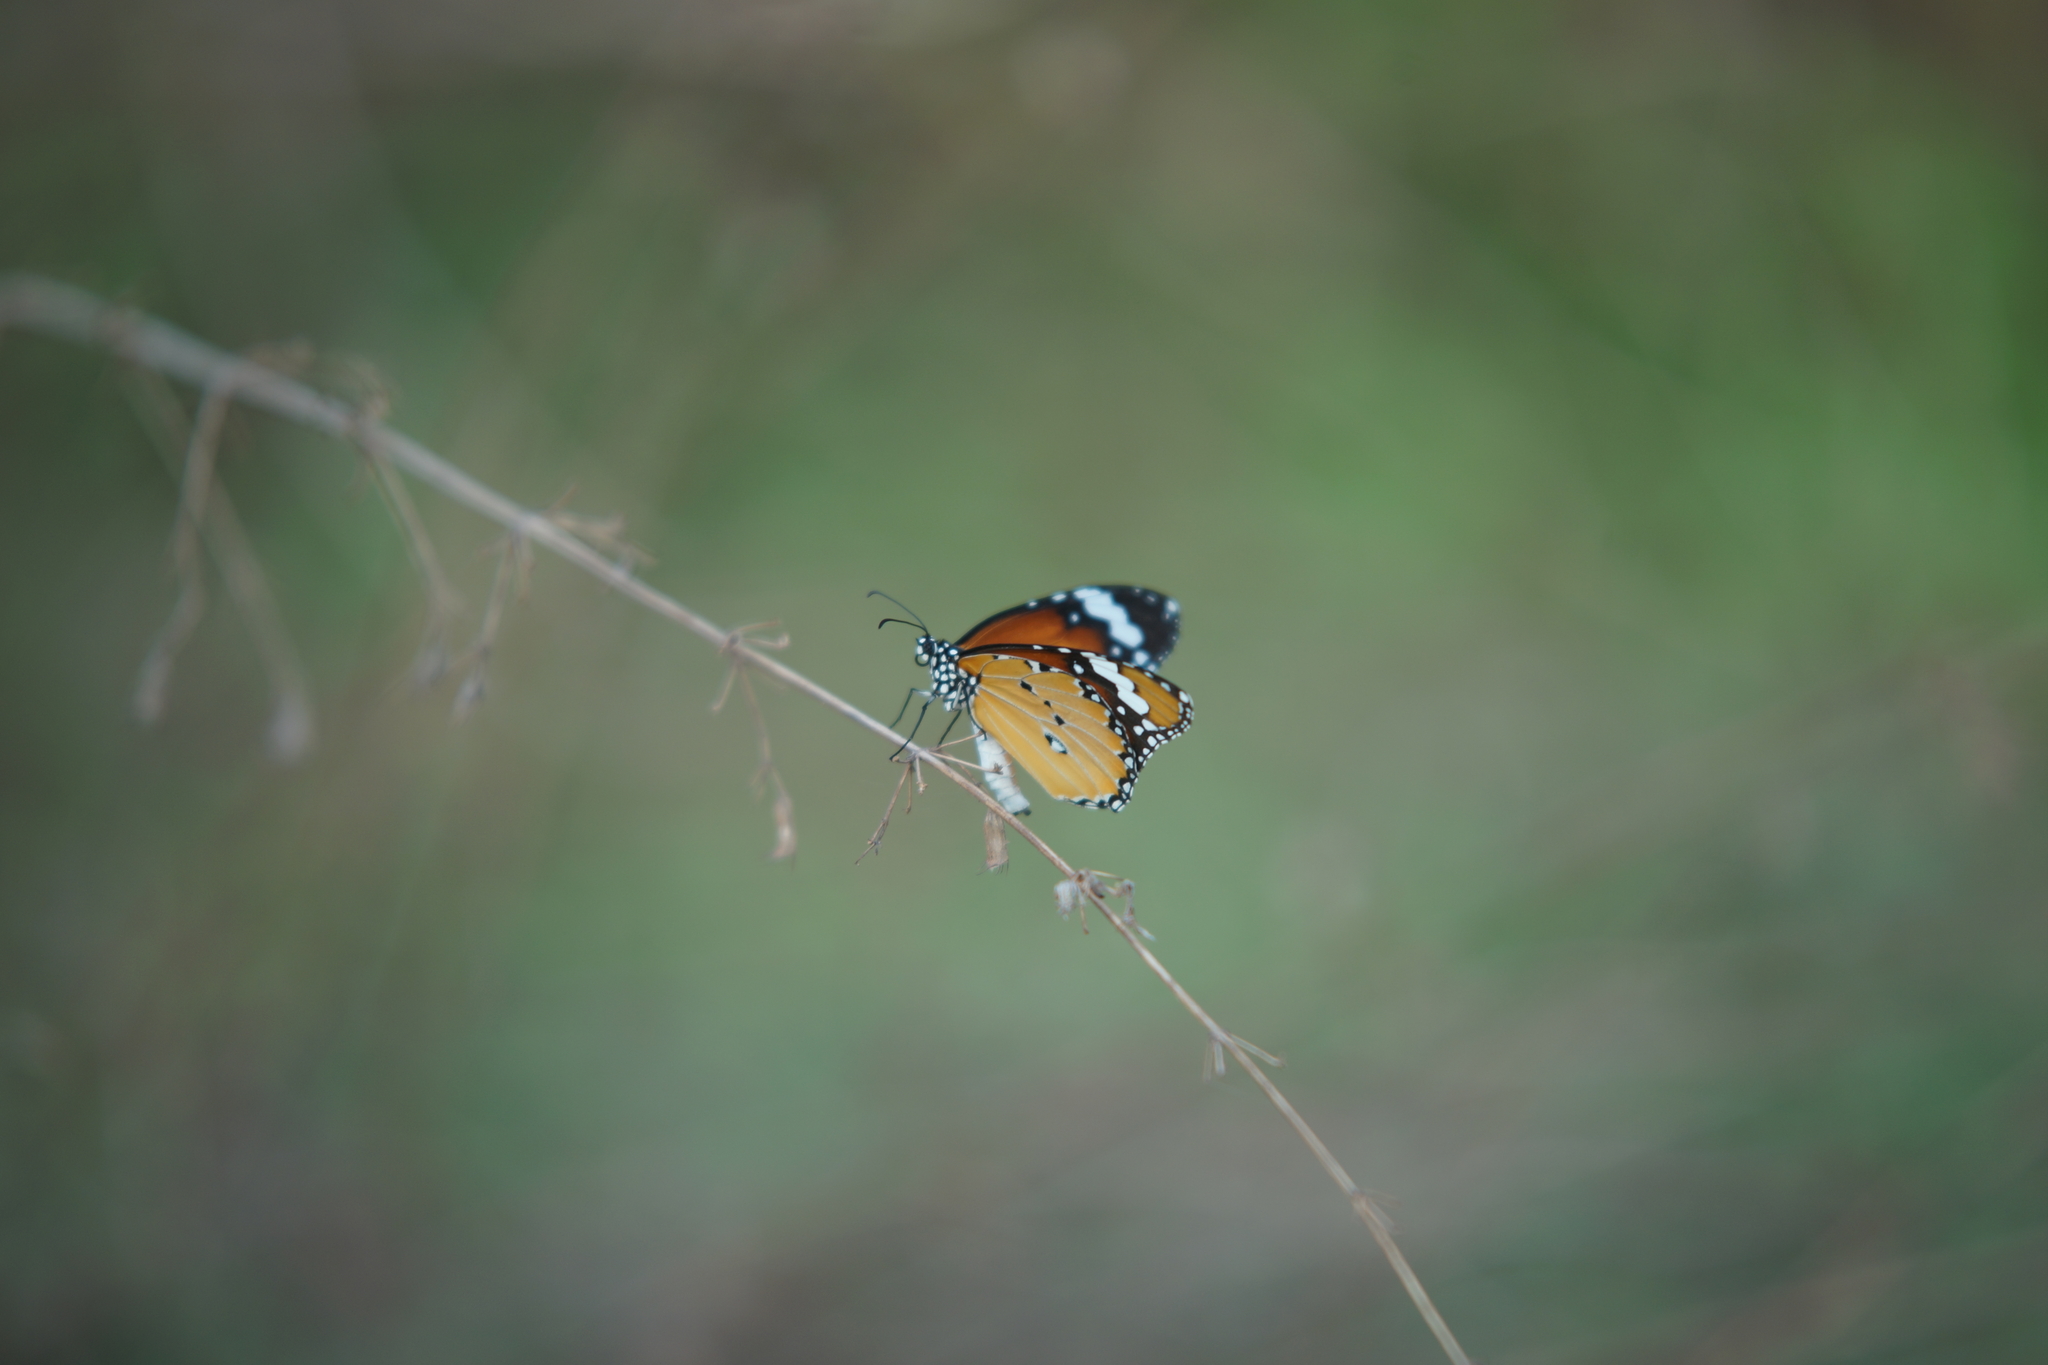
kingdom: Animalia
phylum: Arthropoda
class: Insecta
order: Lepidoptera
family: Nymphalidae
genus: Danaus
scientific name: Danaus chrysippus
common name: Plain tiger
